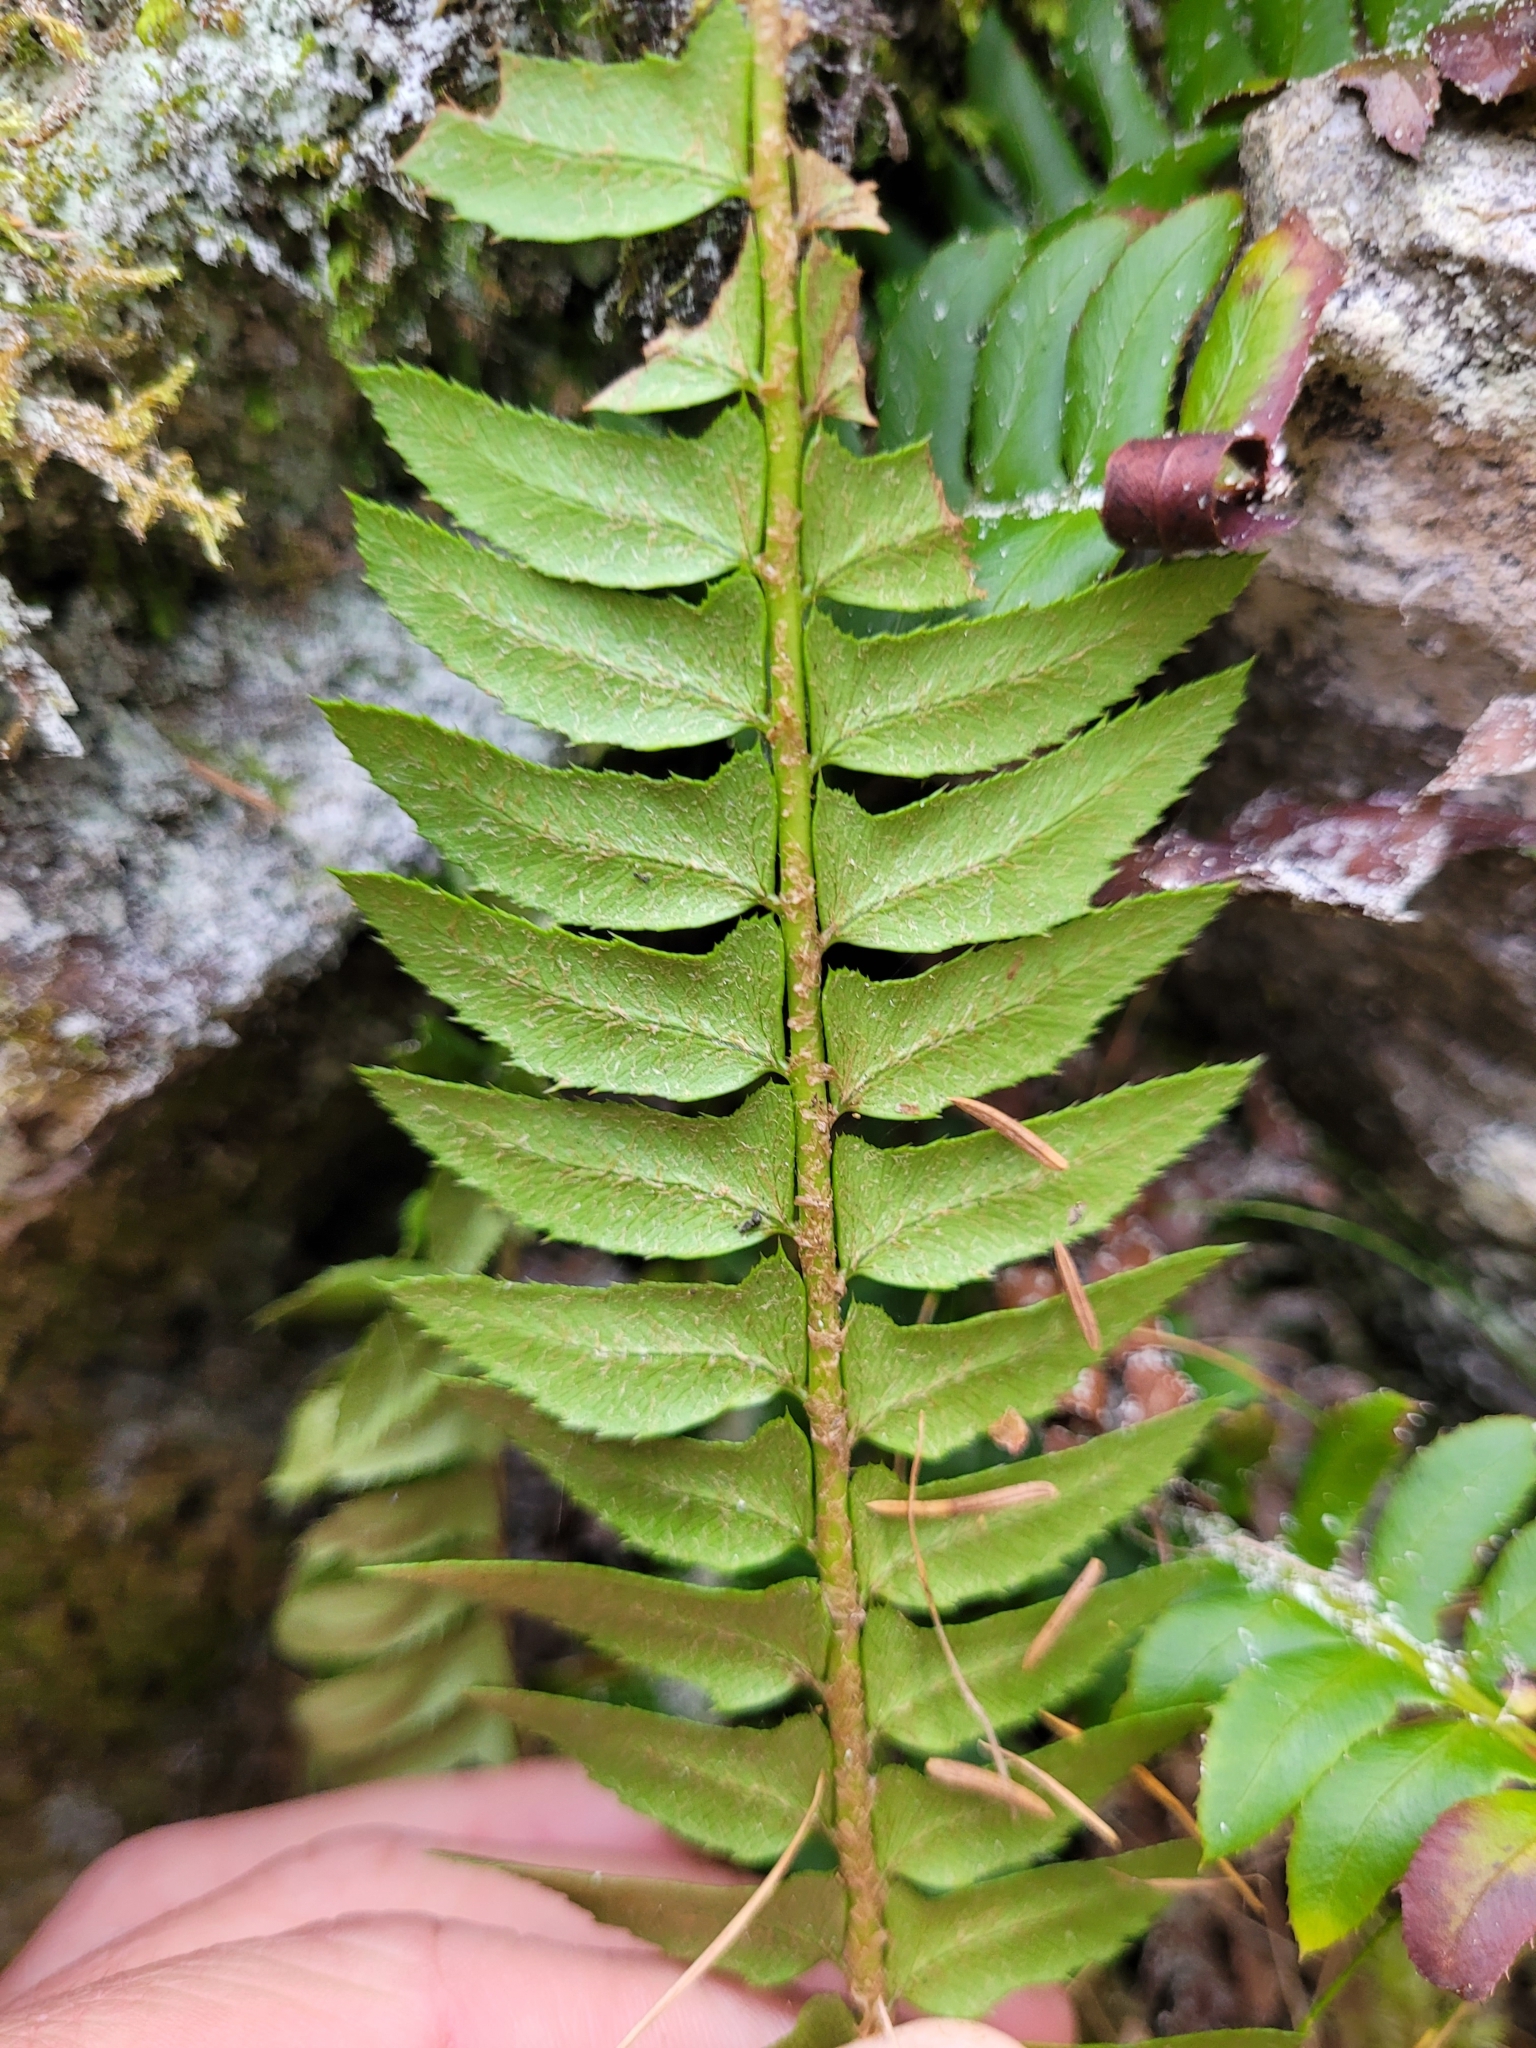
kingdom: Plantae
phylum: Tracheophyta
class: Polypodiopsida
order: Polypodiales
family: Dryopteridaceae
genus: Polystichum
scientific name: Polystichum lonchitis
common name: Holly fern
